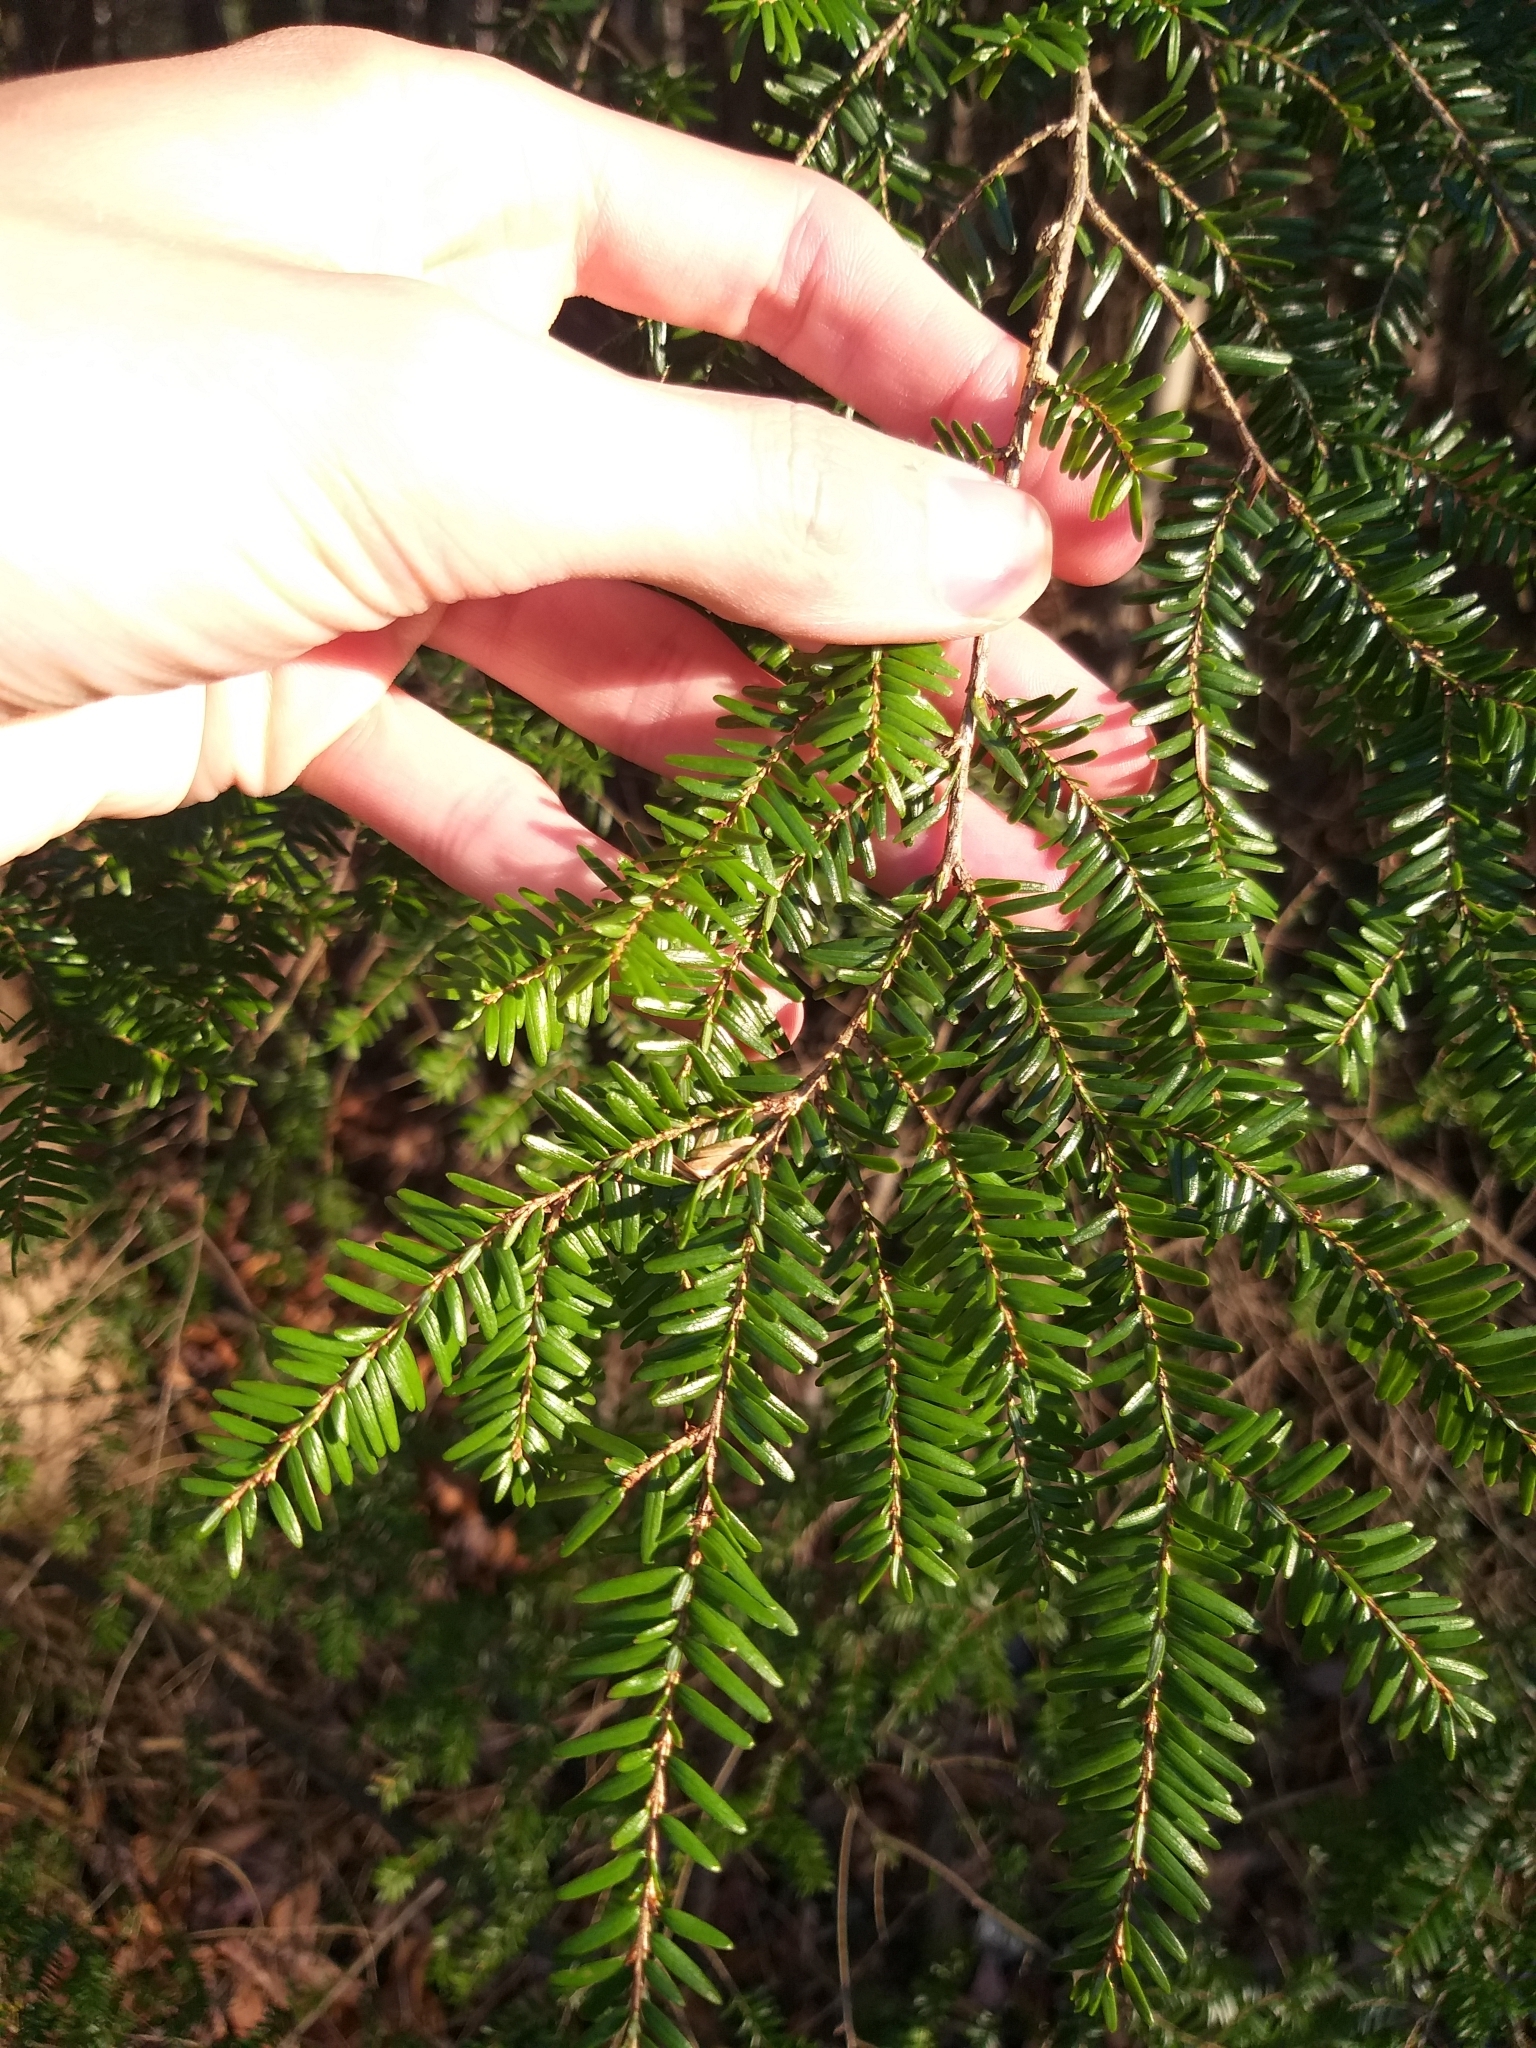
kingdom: Plantae
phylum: Tracheophyta
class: Pinopsida
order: Pinales
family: Pinaceae
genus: Tsuga
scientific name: Tsuga canadensis
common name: Eastern hemlock
